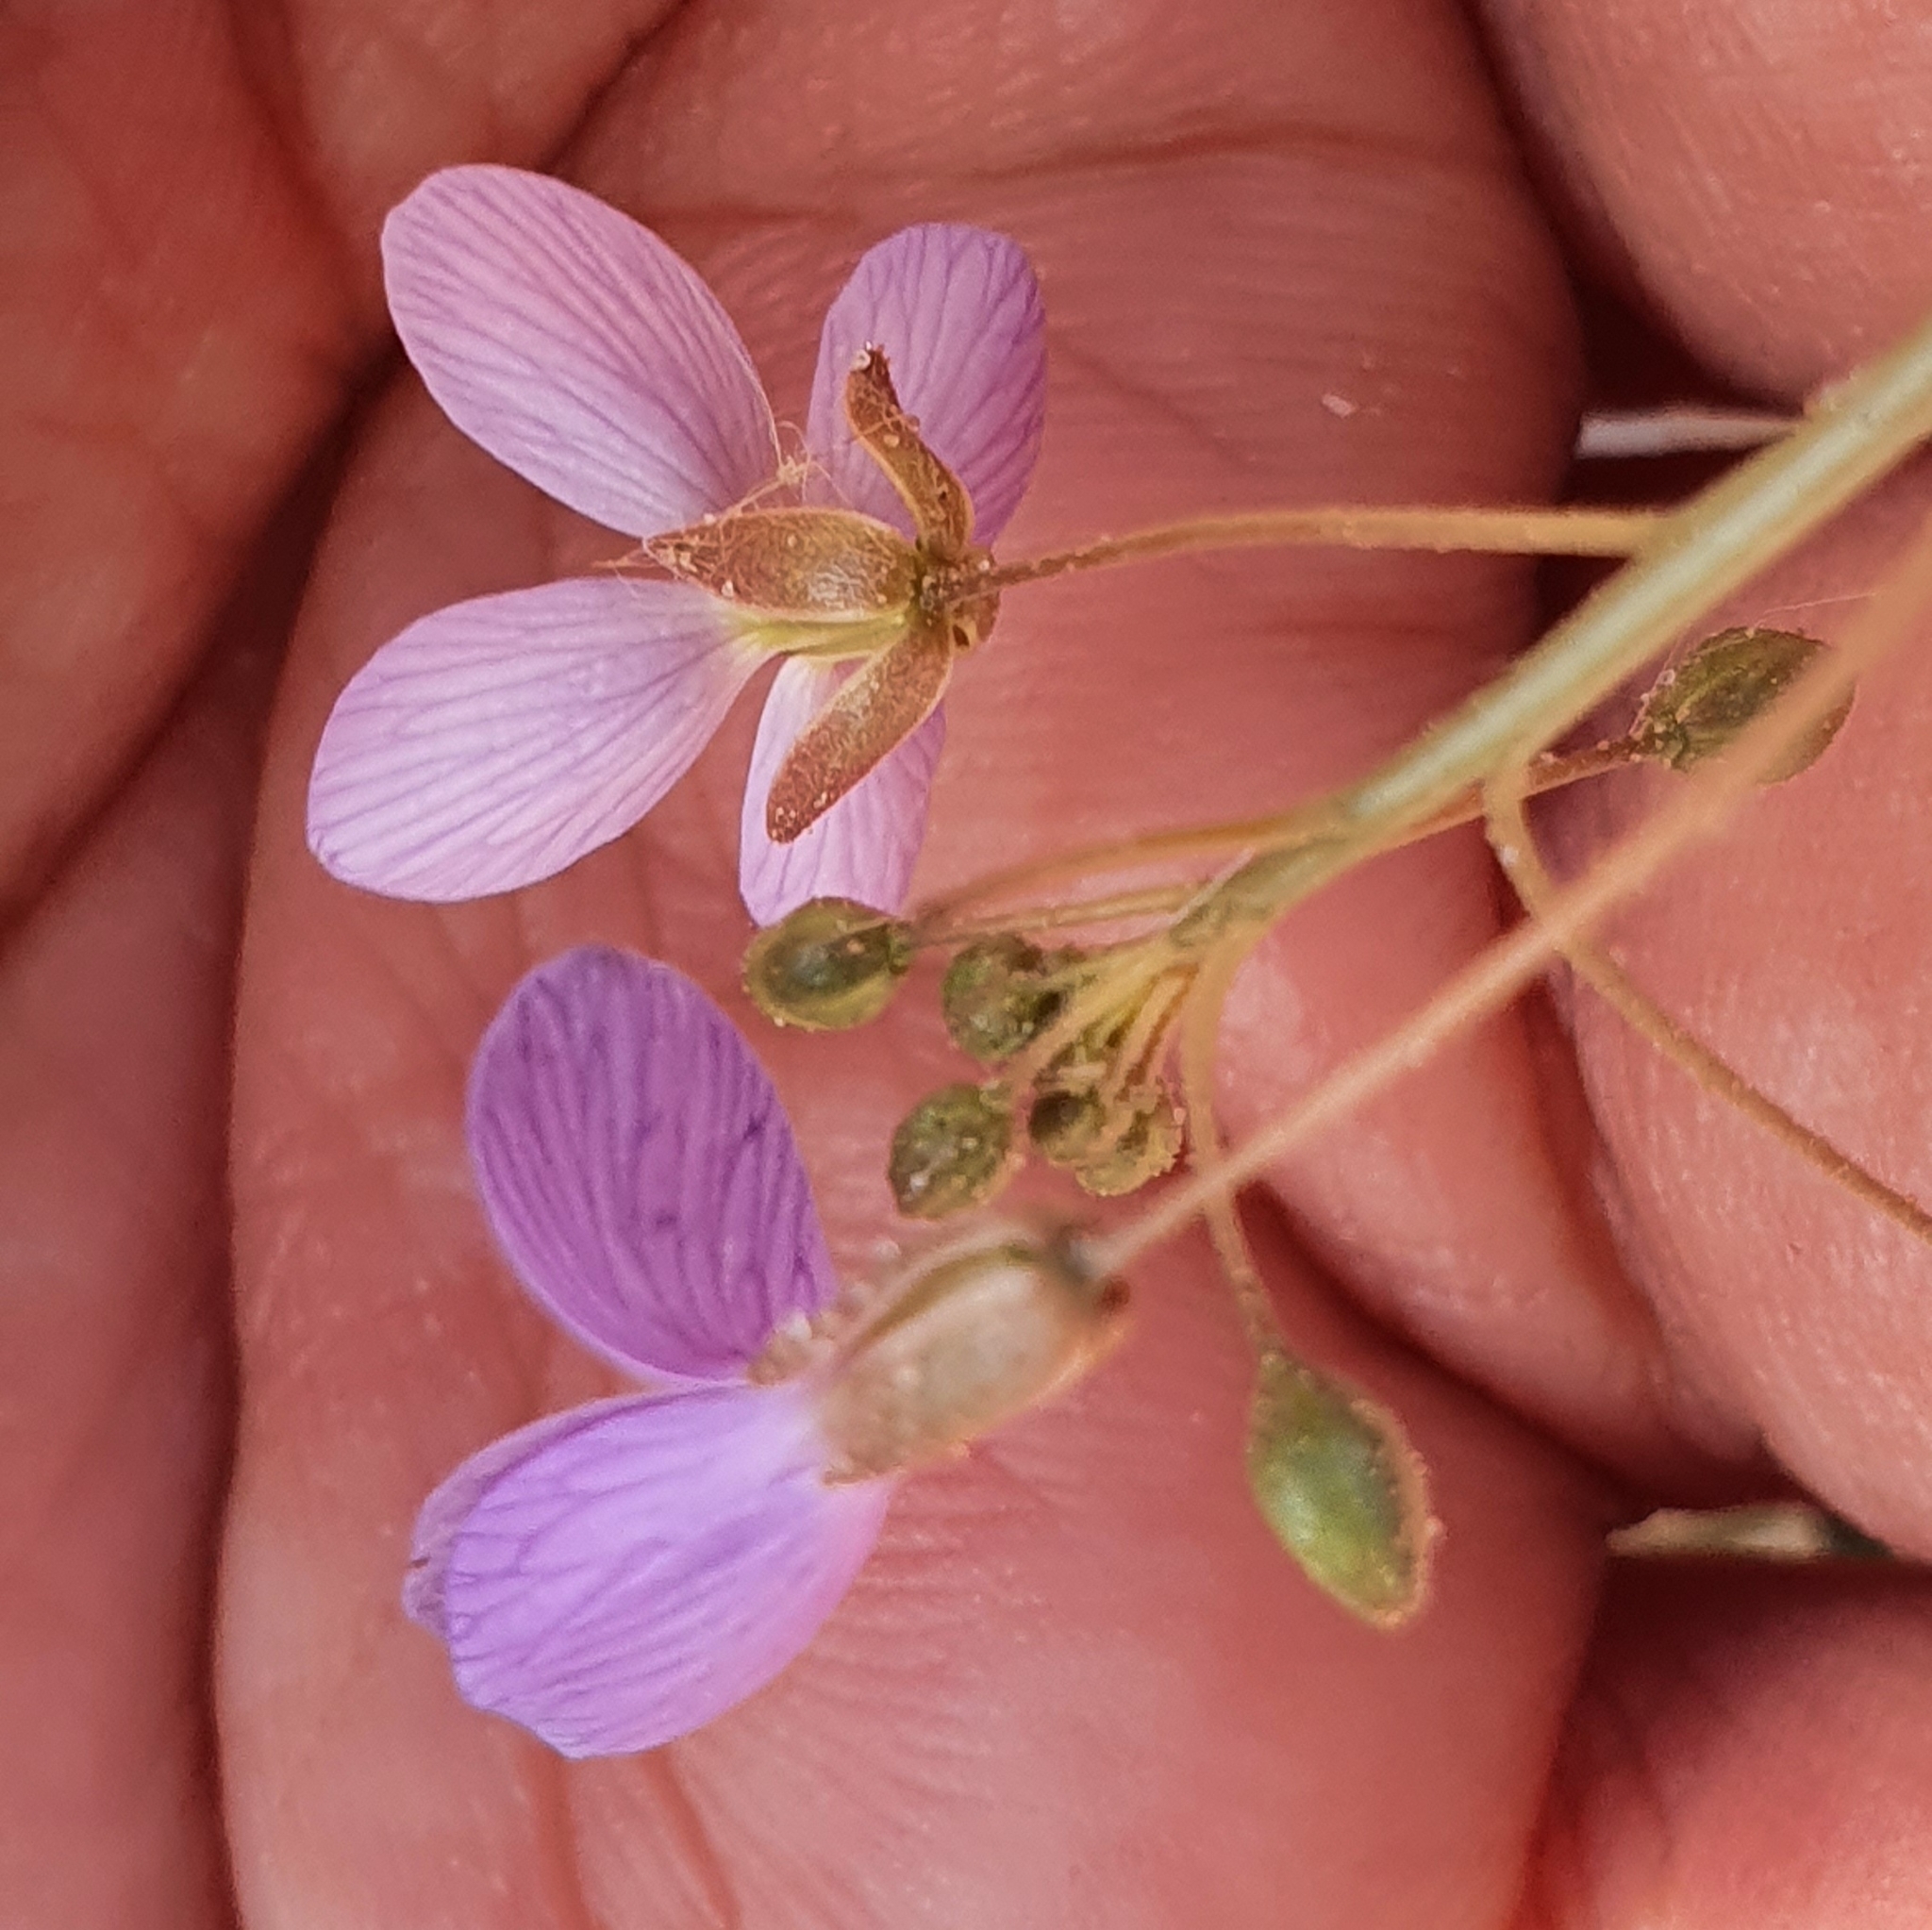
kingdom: Plantae
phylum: Tracheophyta
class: Magnoliopsida
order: Brassicales
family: Brassicaceae
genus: Savignya
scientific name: Savignya parviflora
